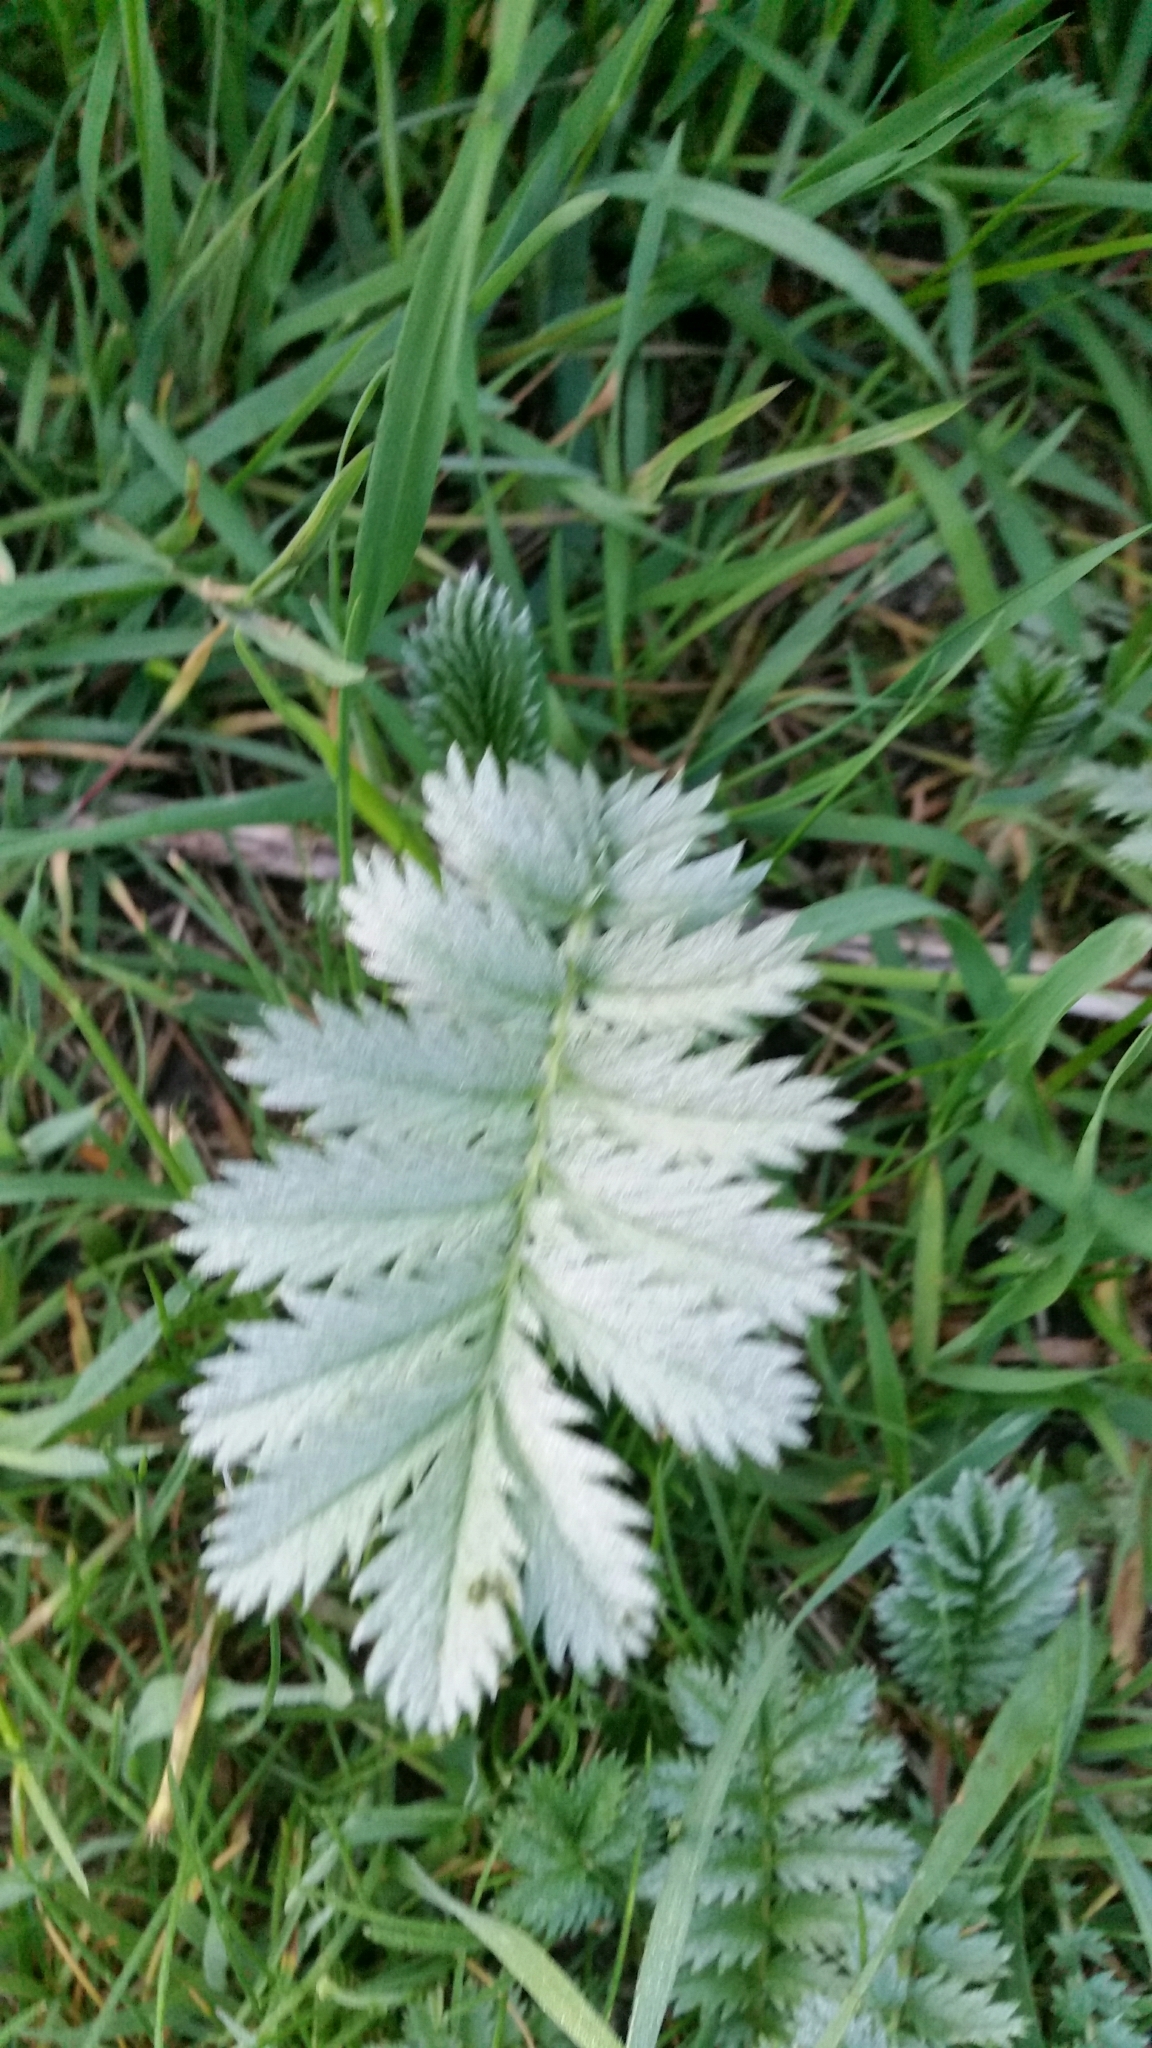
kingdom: Plantae
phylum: Tracheophyta
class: Magnoliopsida
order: Rosales
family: Rosaceae
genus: Argentina
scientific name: Argentina anserina
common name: Common silverweed
